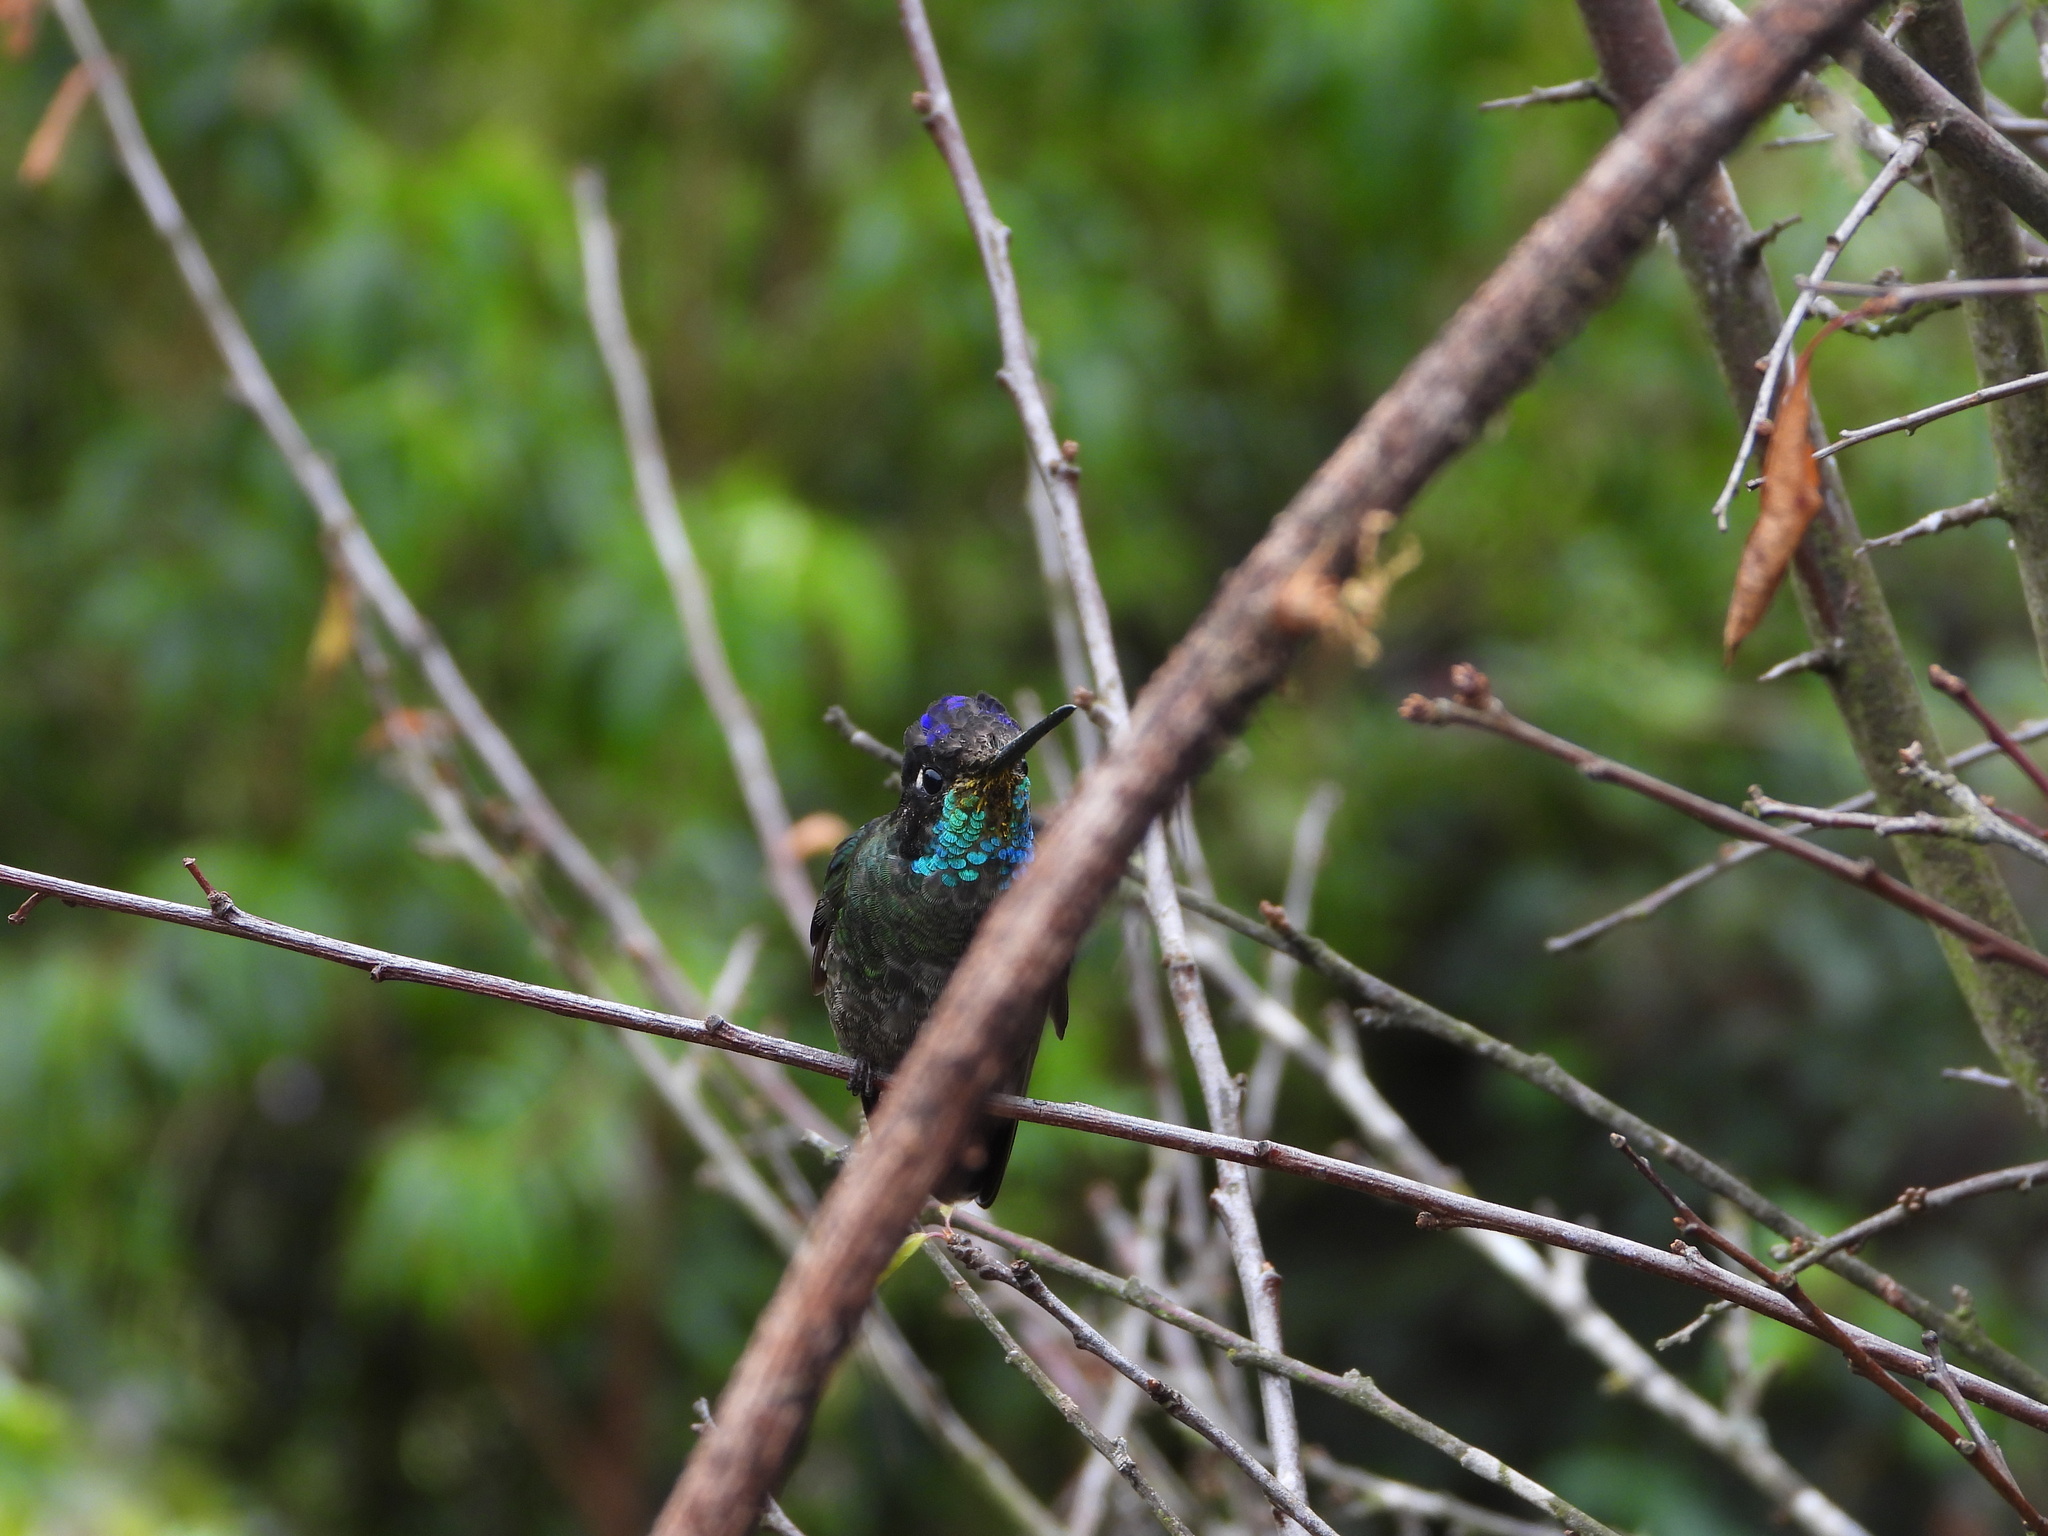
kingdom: Animalia
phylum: Chordata
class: Aves
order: Apodiformes
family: Trochilidae
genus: Eugenes
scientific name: Eugenes spectabilis
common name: Talamanca hummingbird
